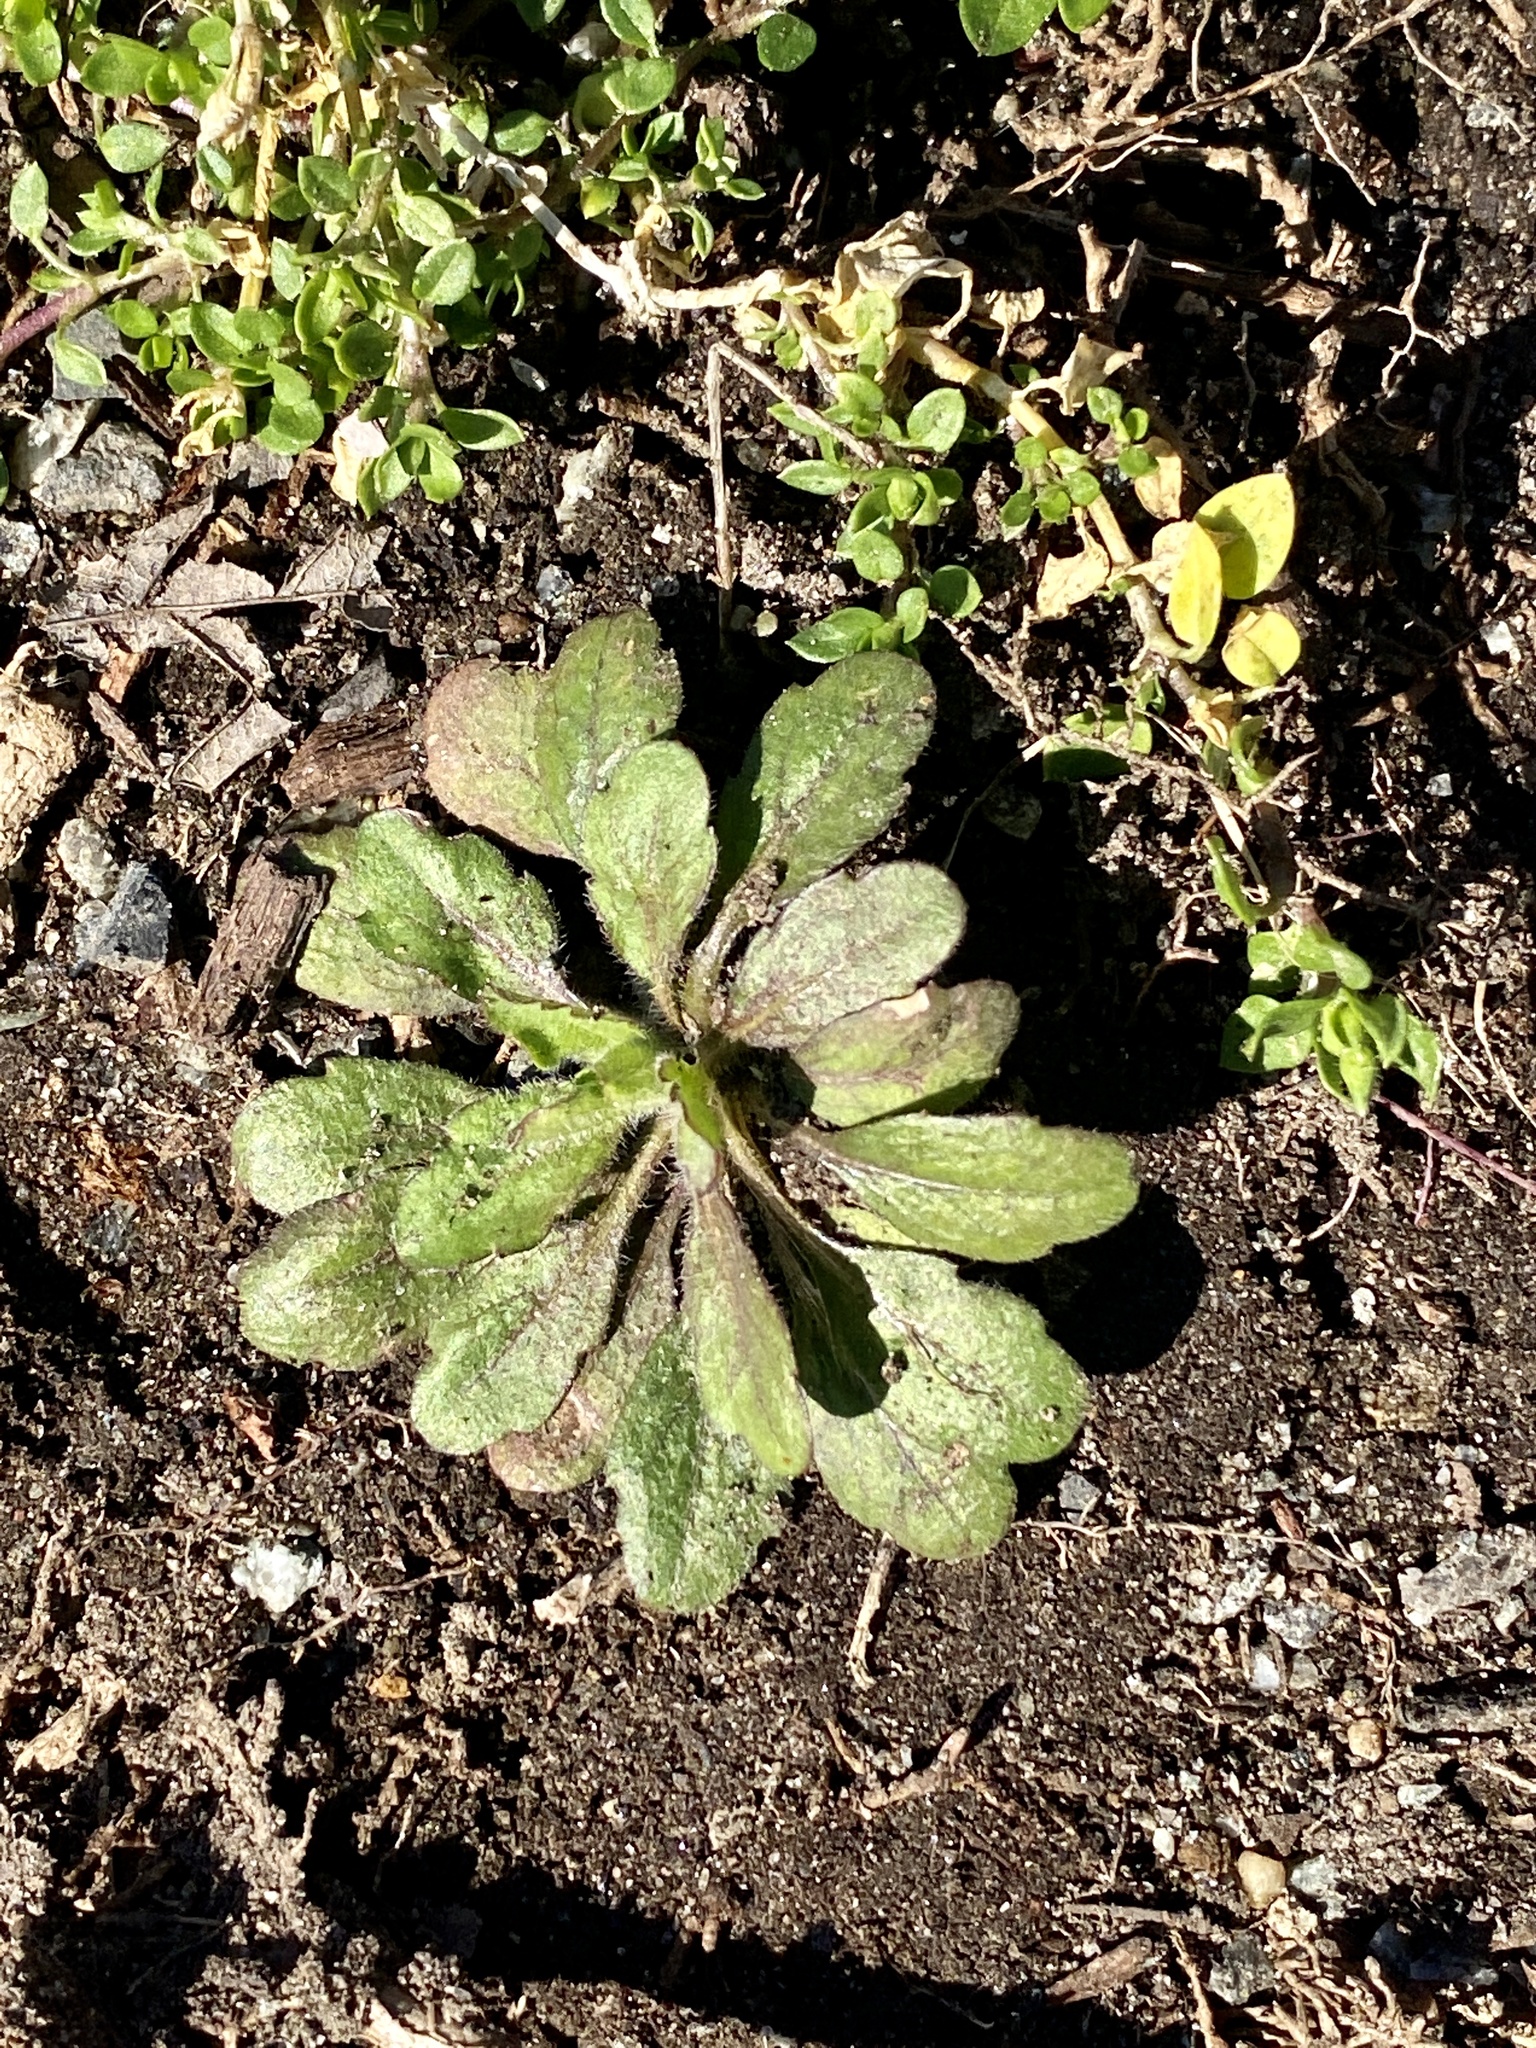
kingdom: Plantae
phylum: Tracheophyta
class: Magnoliopsida
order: Asterales
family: Asteraceae
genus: Erigeron
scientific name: Erigeron canadensis
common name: Canadian fleabane
